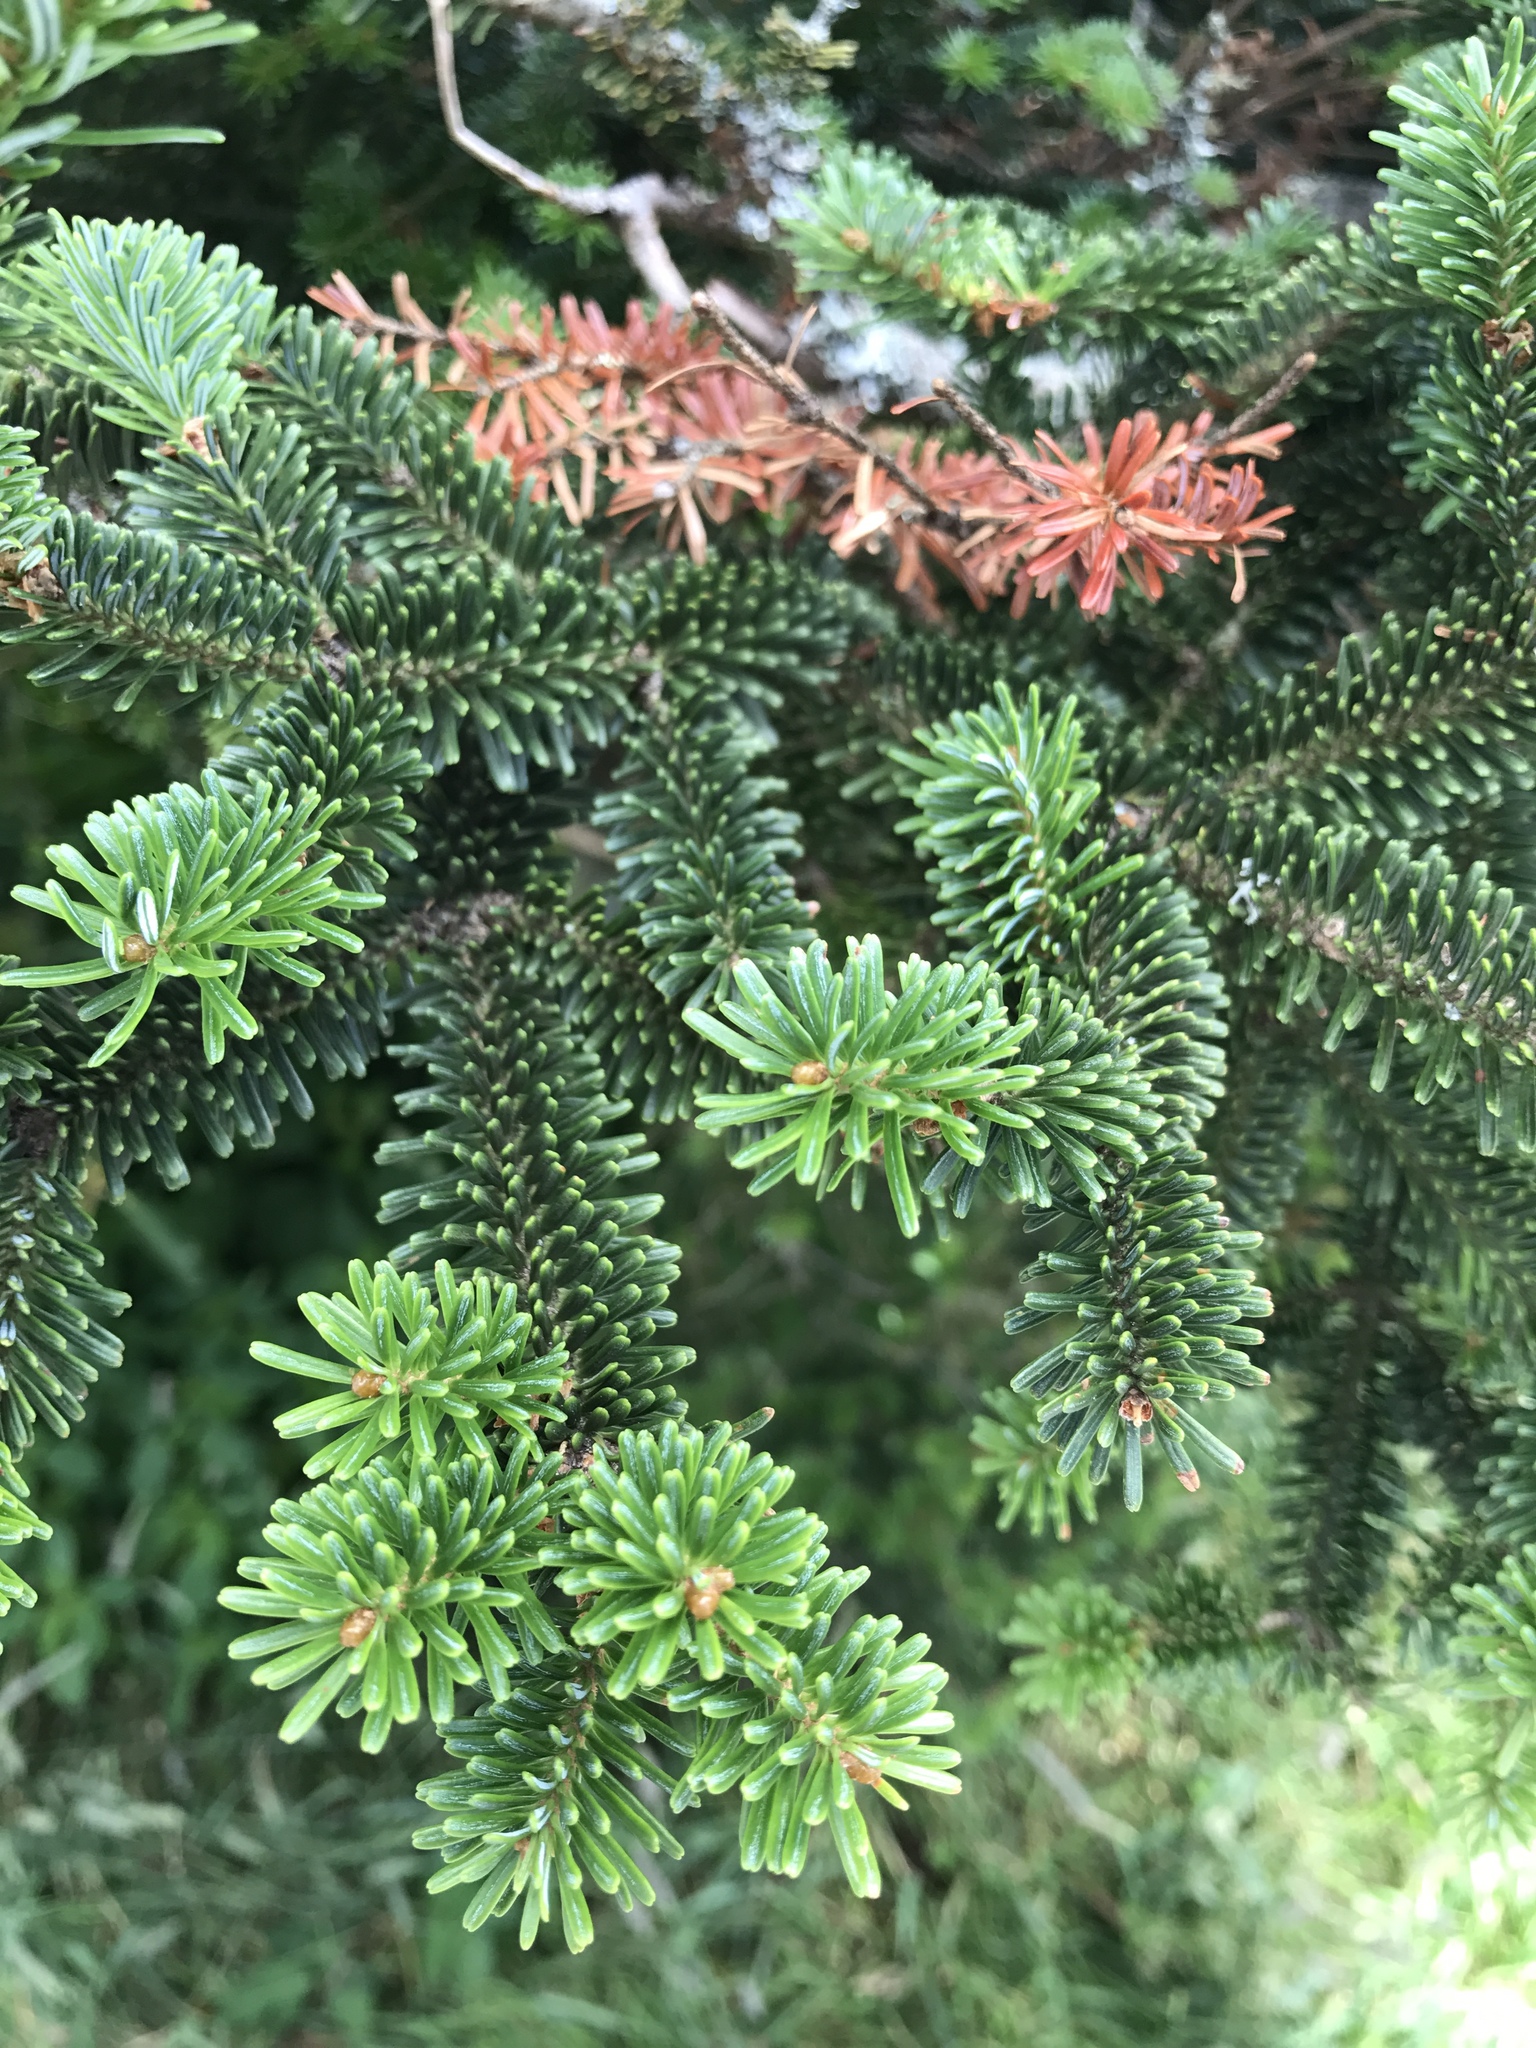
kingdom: Plantae
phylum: Tracheophyta
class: Pinopsida
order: Pinales
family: Pinaceae
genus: Abies
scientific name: Abies fraseri
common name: Fraser fir
